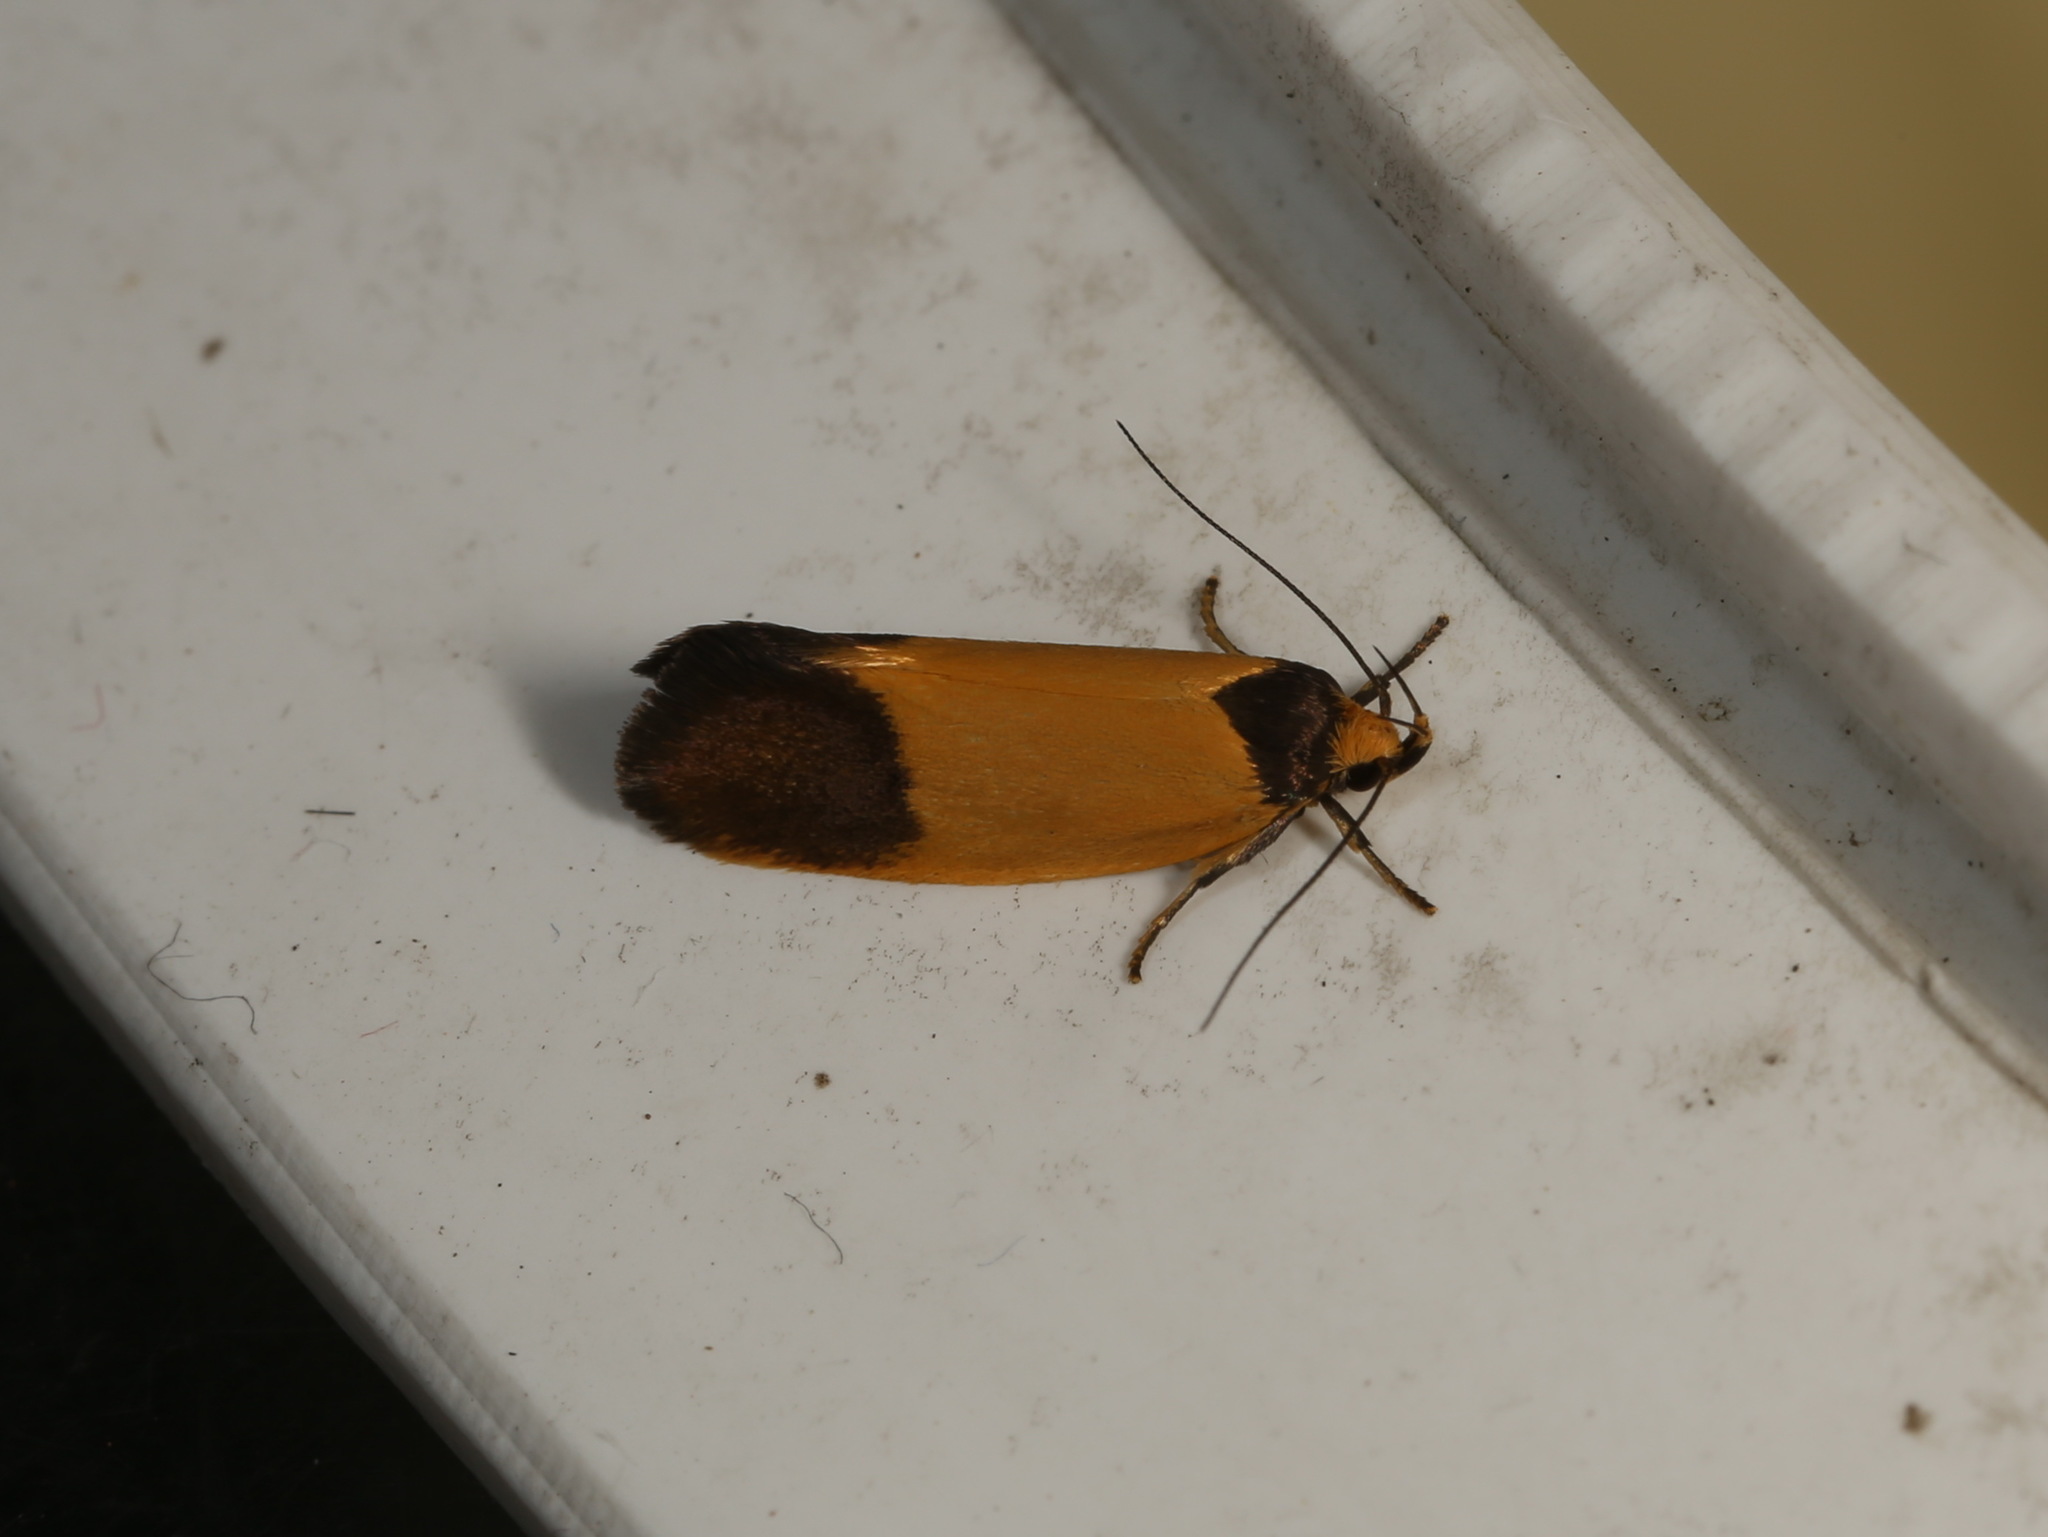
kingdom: Animalia
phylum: Arthropoda
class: Insecta
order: Lepidoptera
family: Oecophoridae
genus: Merocroca
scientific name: Merocroca automima
